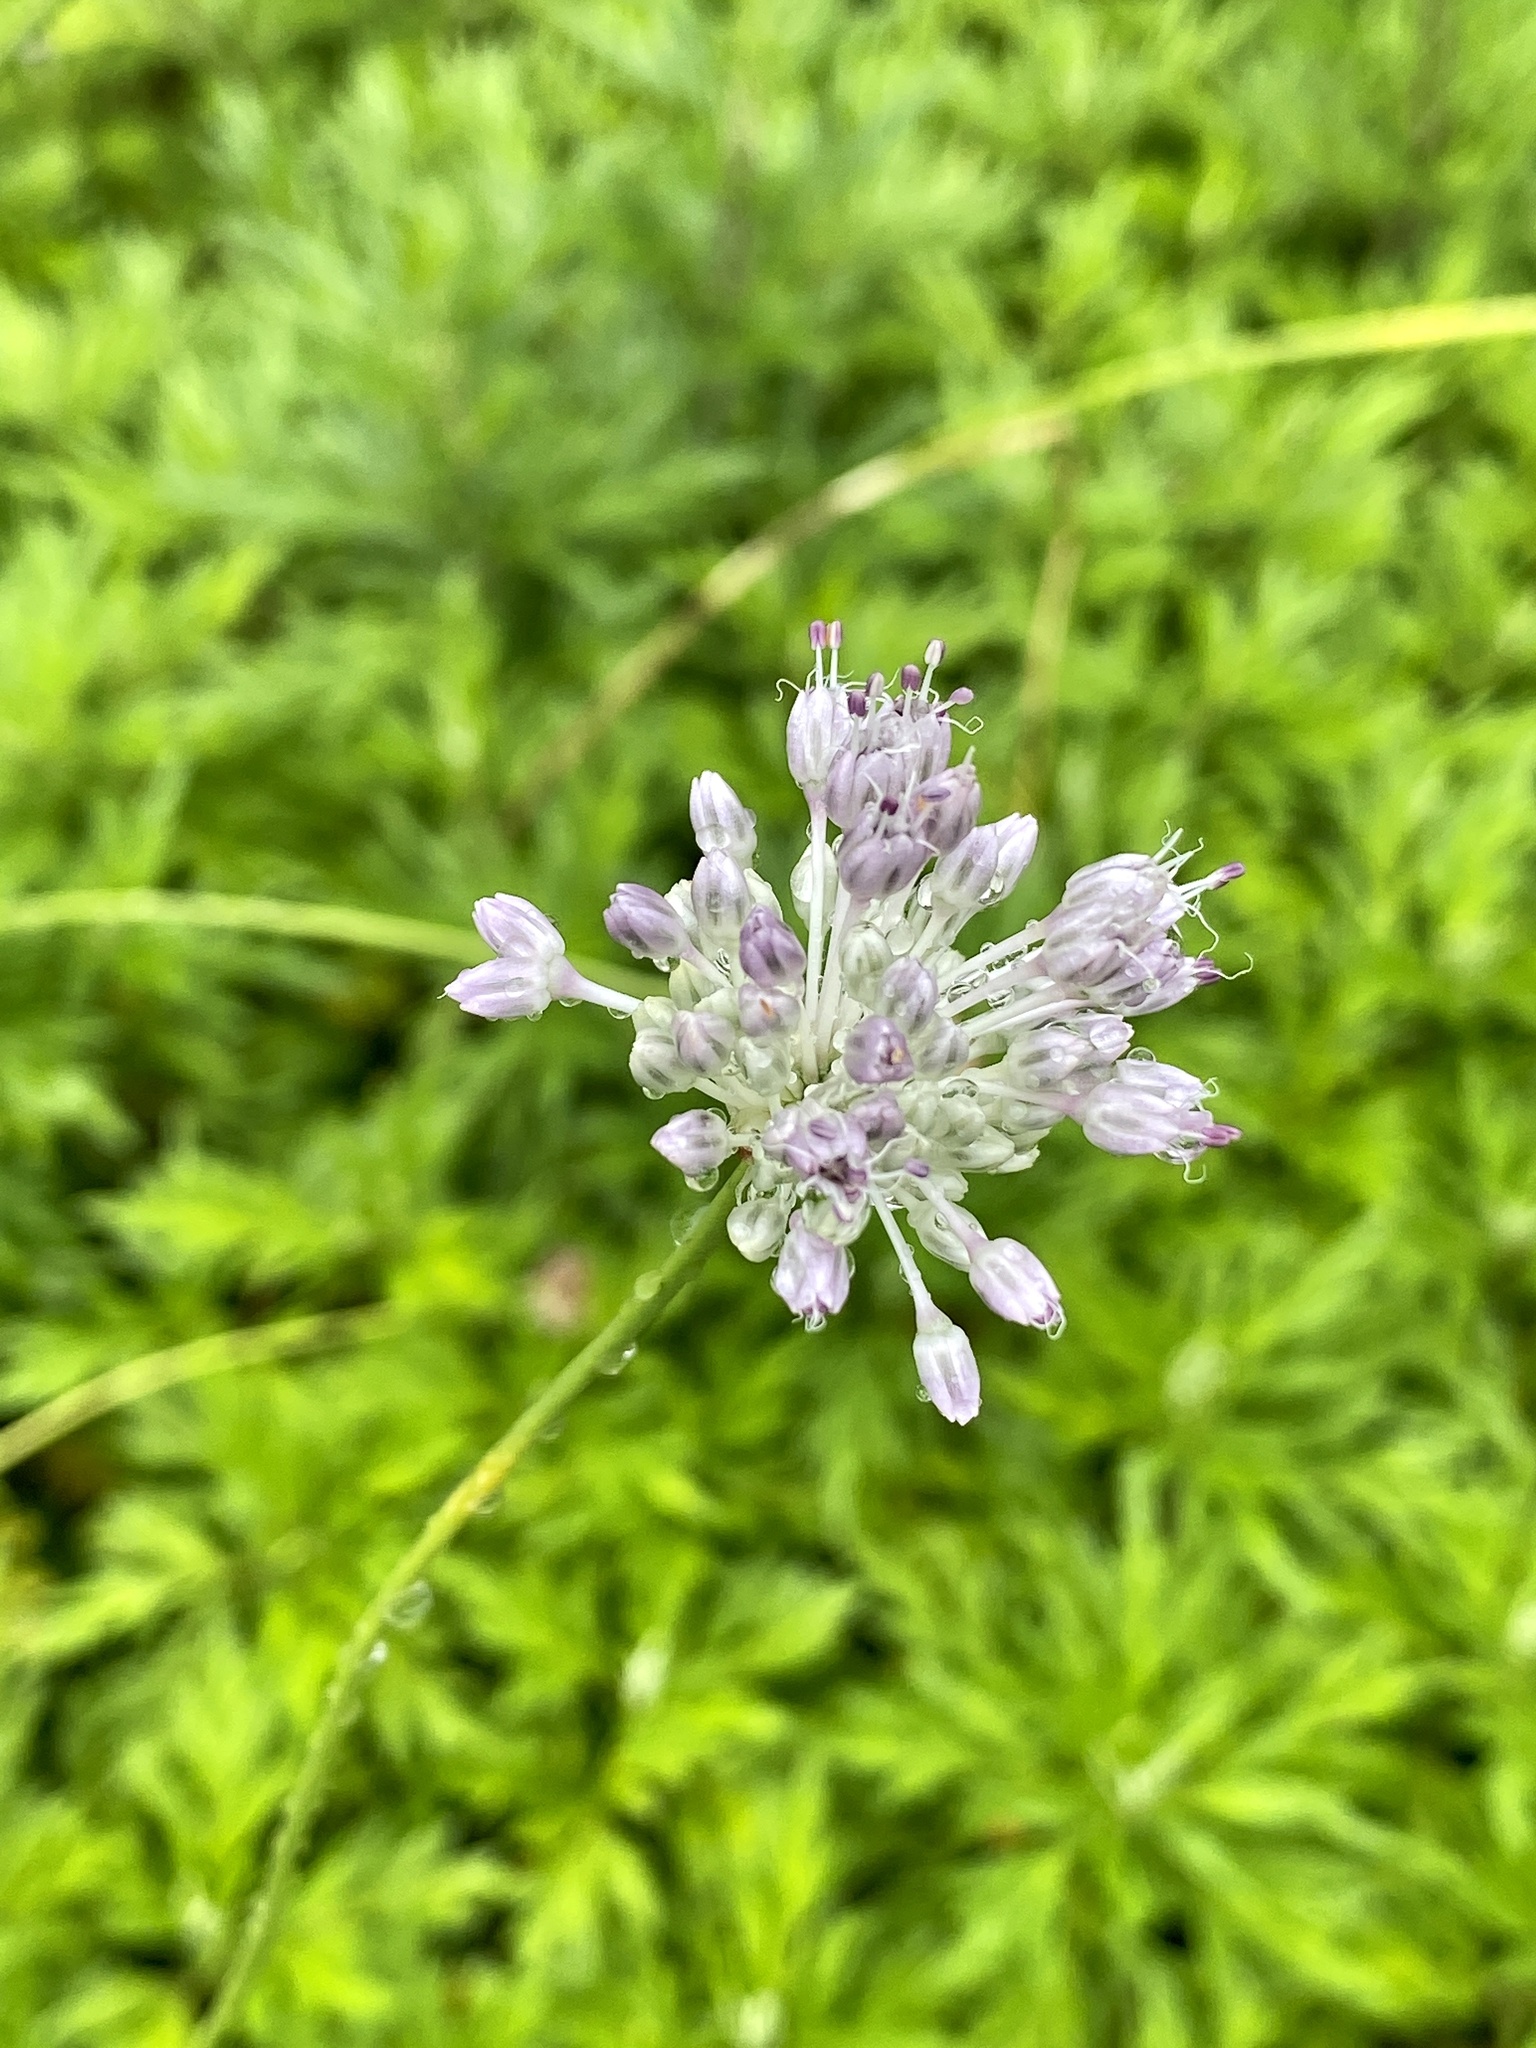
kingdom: Plantae
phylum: Tracheophyta
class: Liliopsida
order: Asparagales
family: Amaryllidaceae
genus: Allium
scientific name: Allium vineale
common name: Crow garlic
